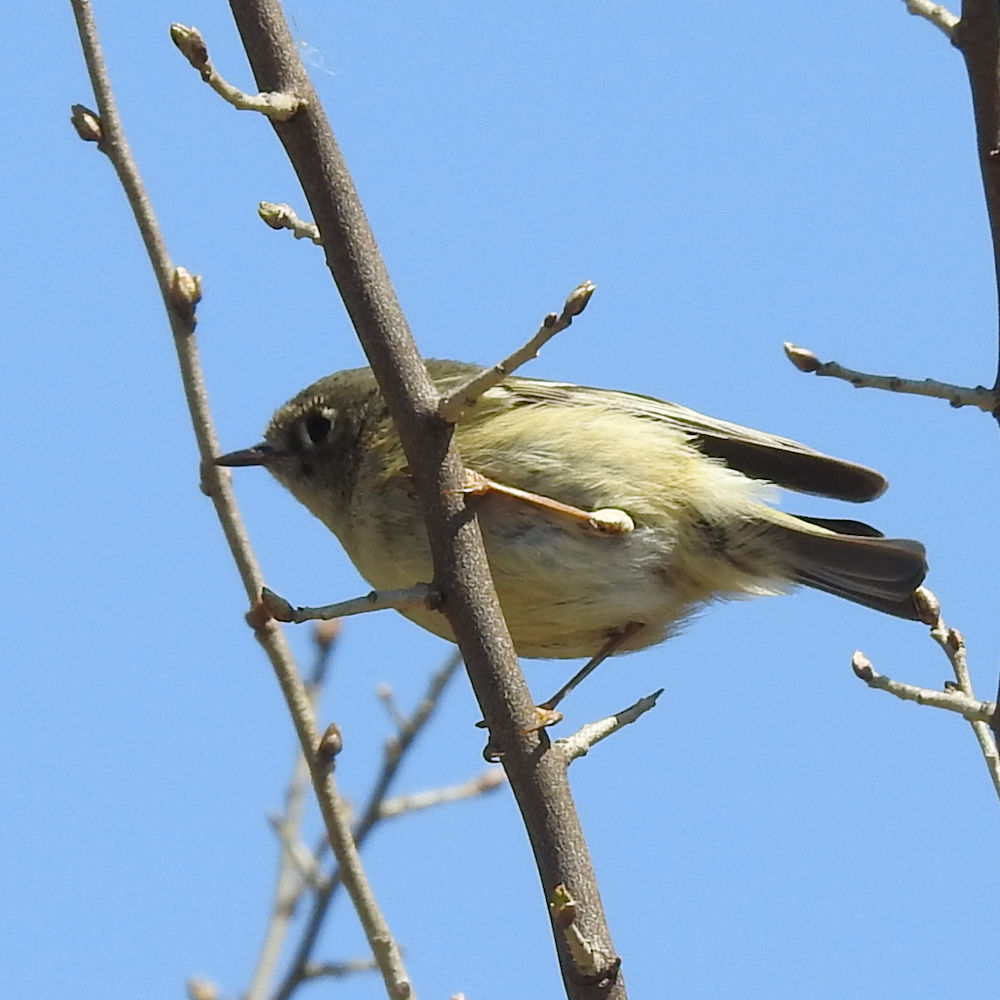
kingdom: Animalia
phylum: Chordata
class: Aves
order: Passeriformes
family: Regulidae
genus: Regulus
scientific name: Regulus calendula
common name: Ruby-crowned kinglet
